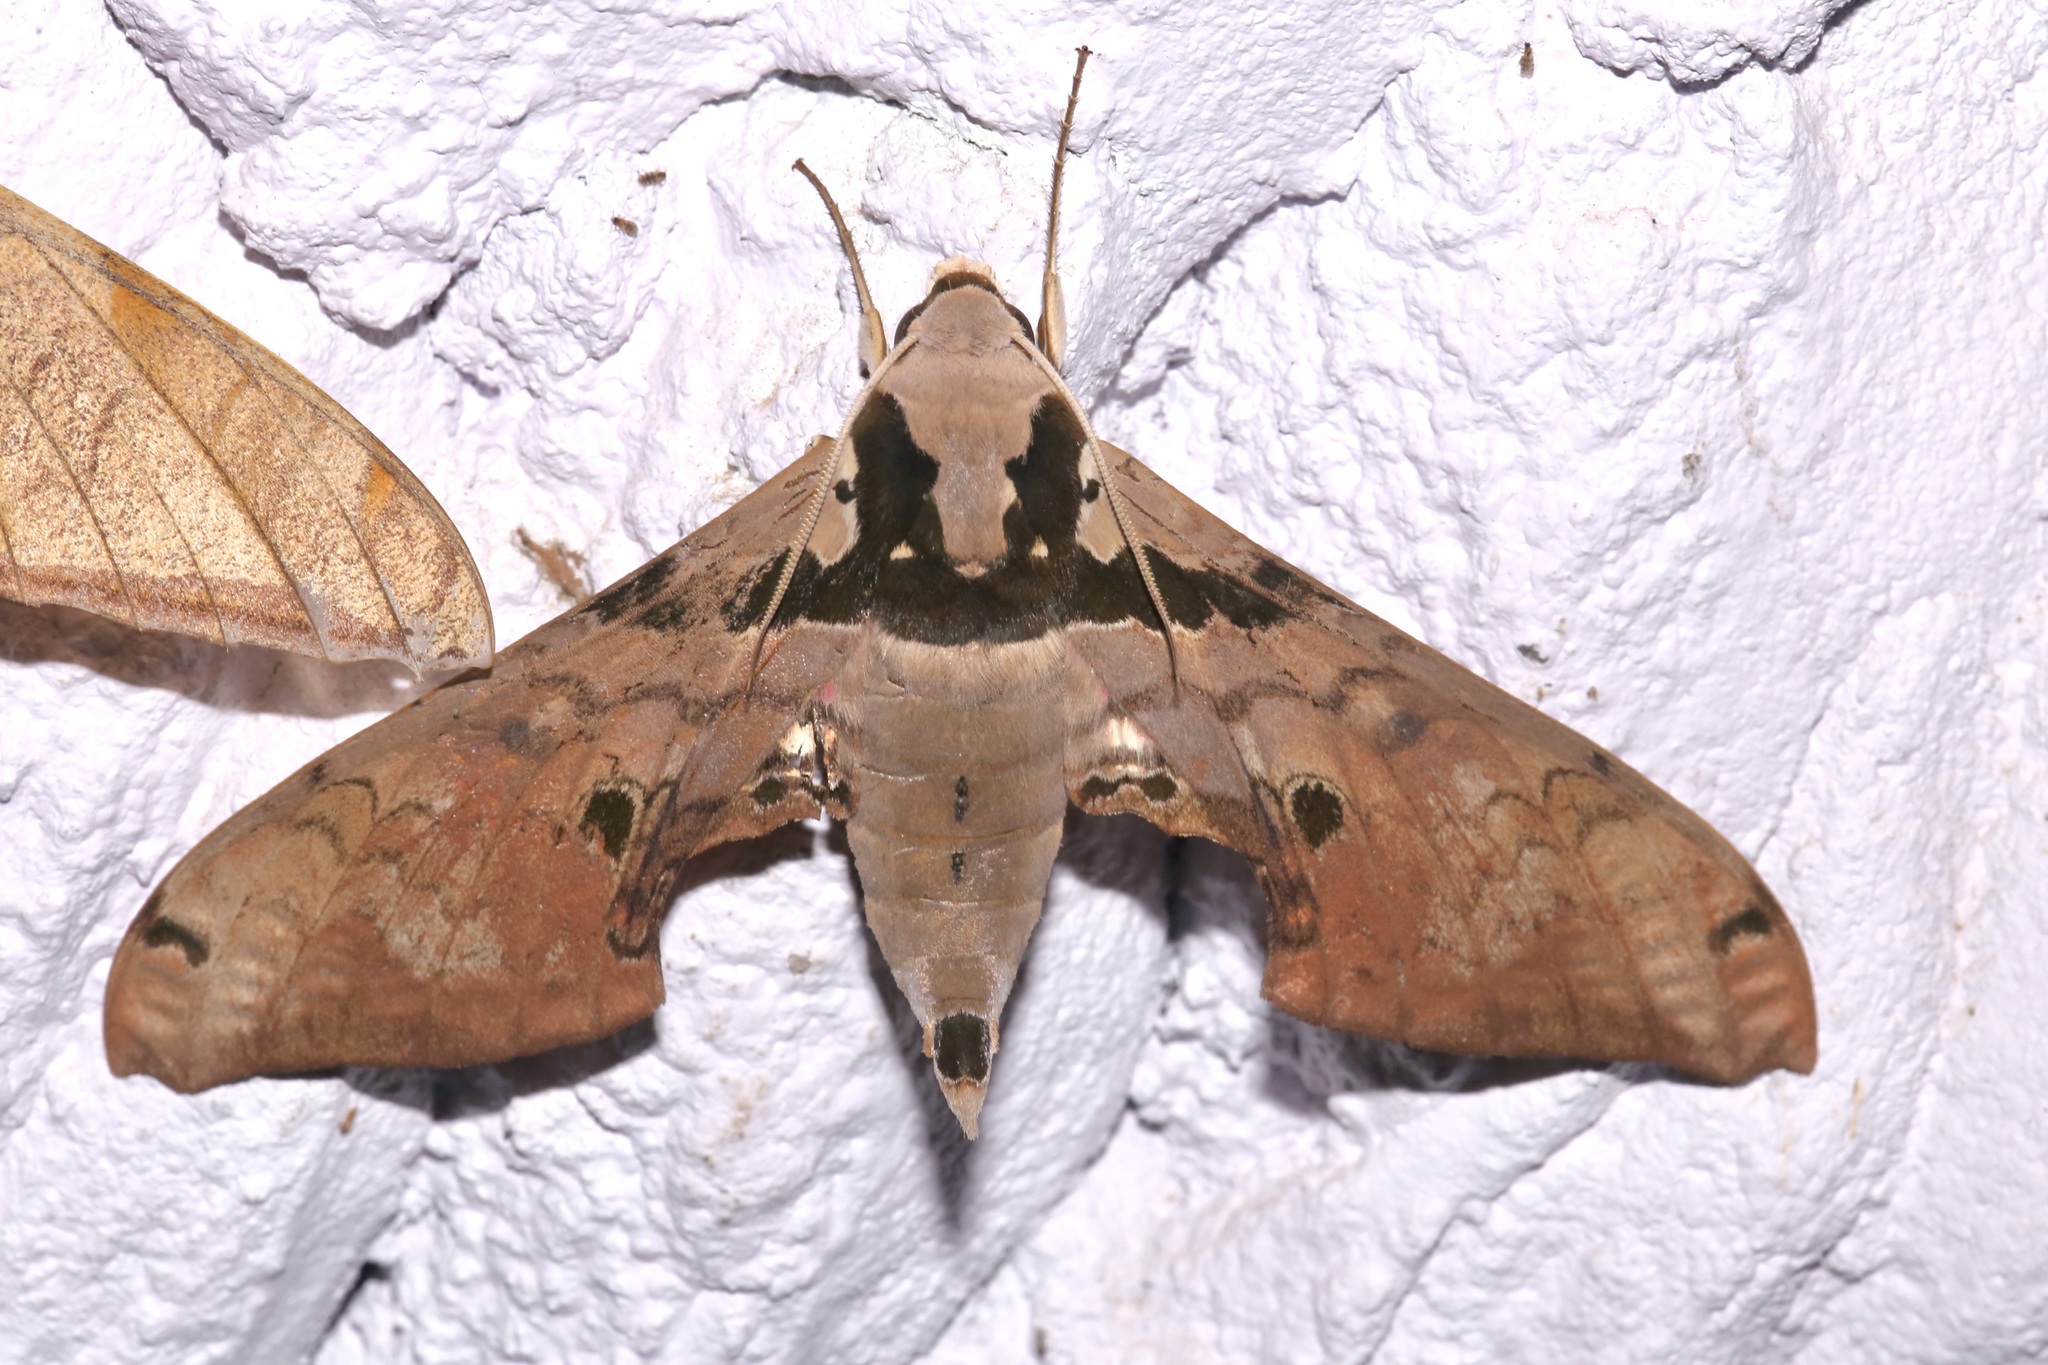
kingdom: Animalia
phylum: Arthropoda
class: Insecta
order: Lepidoptera
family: Sphingidae
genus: Adhemarius
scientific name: Adhemarius gannascus
